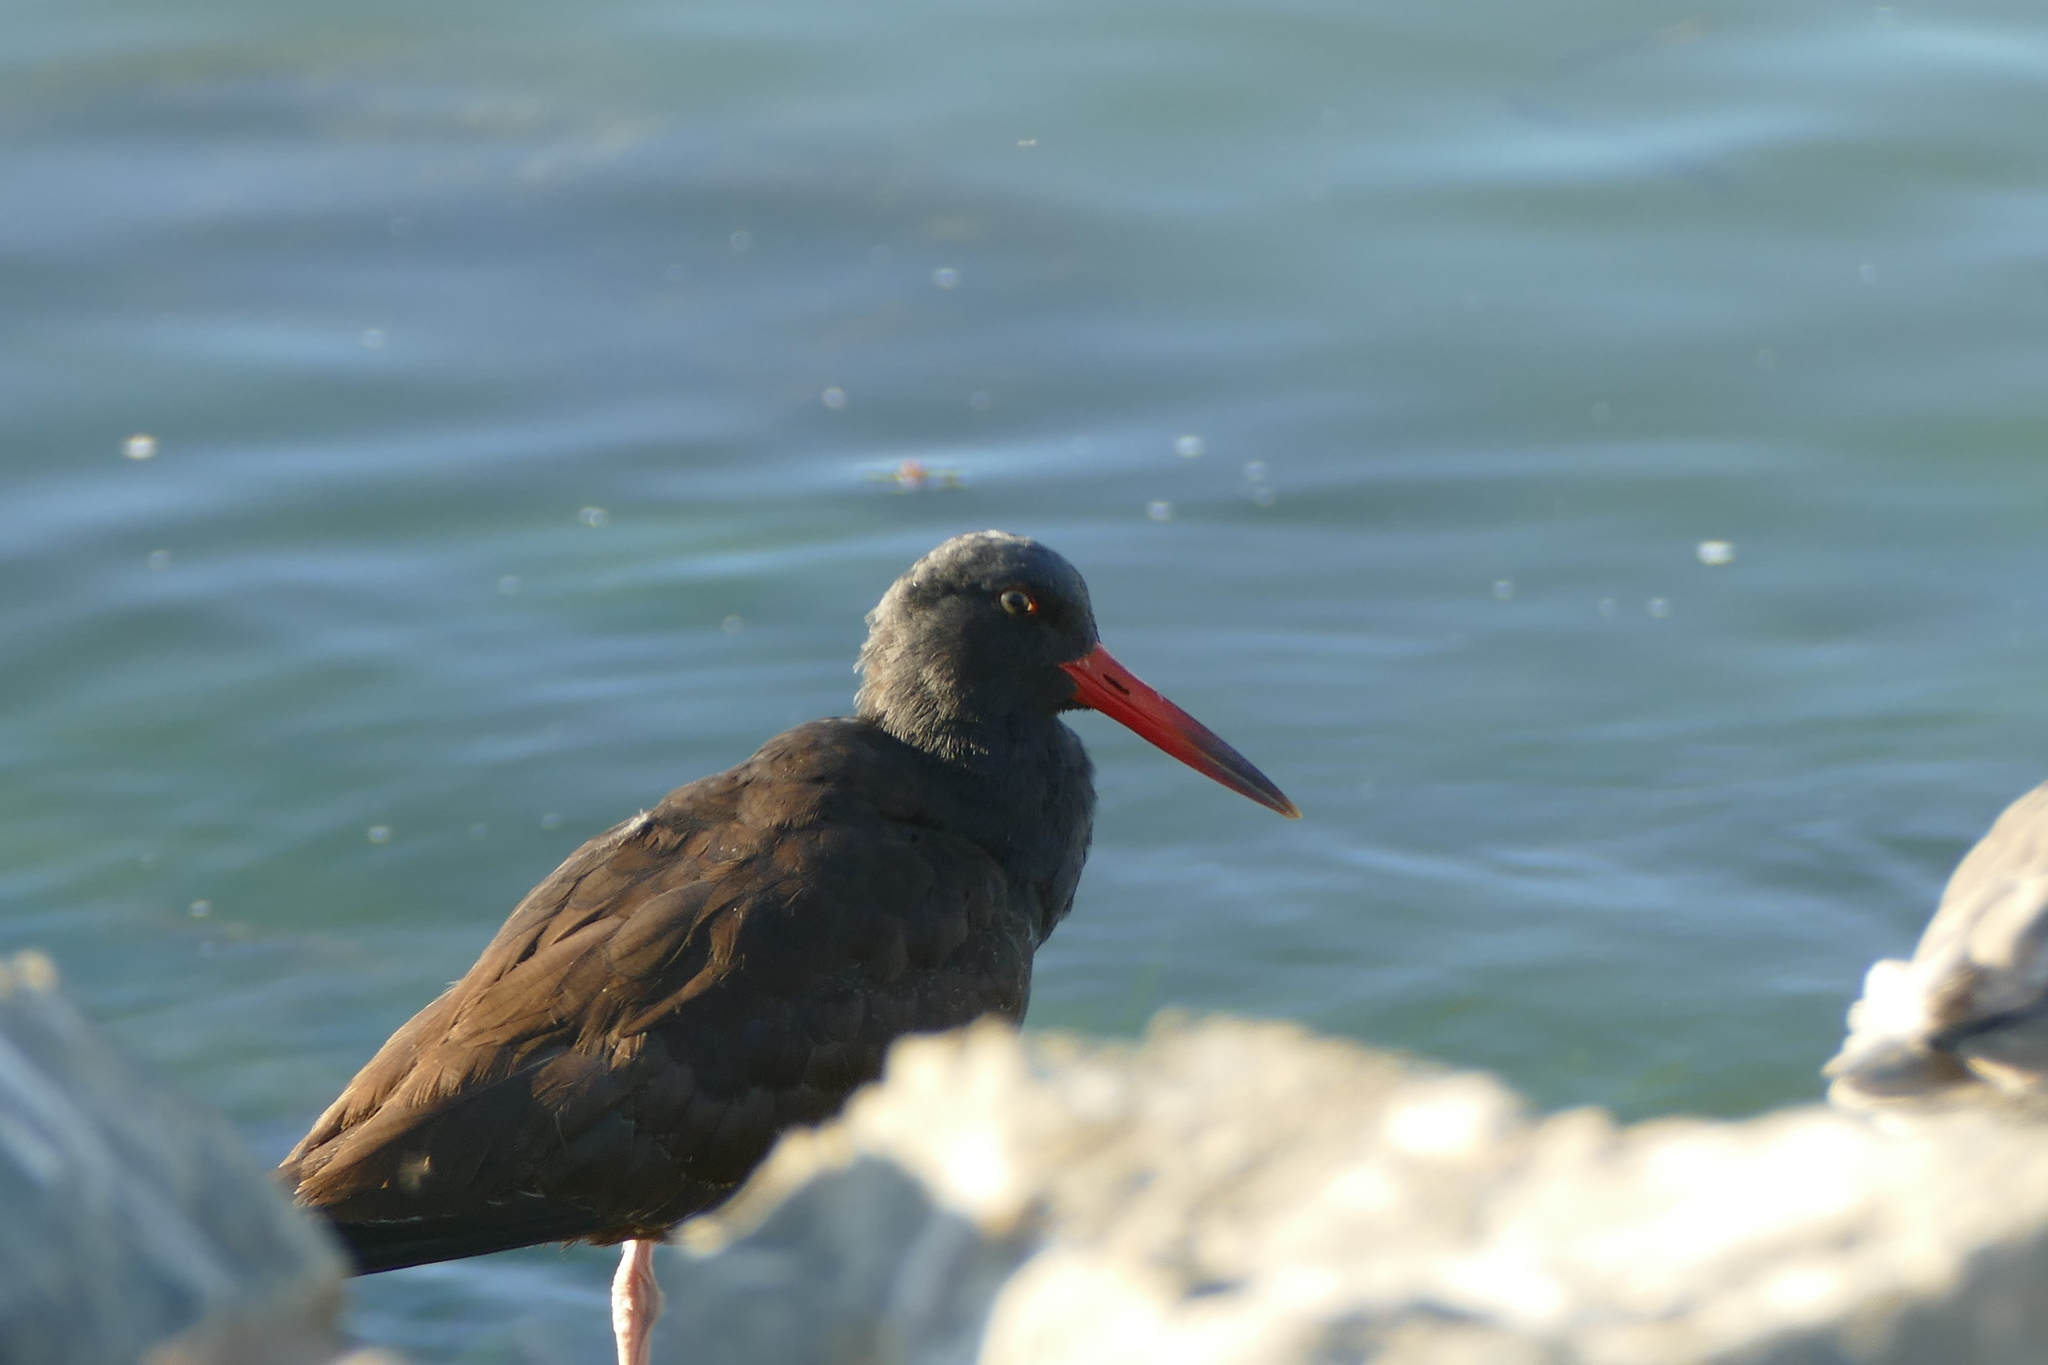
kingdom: Animalia
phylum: Chordata
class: Aves
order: Charadriiformes
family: Haematopodidae
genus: Haematopus
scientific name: Haematopus bachmani
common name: Black oystercatcher
